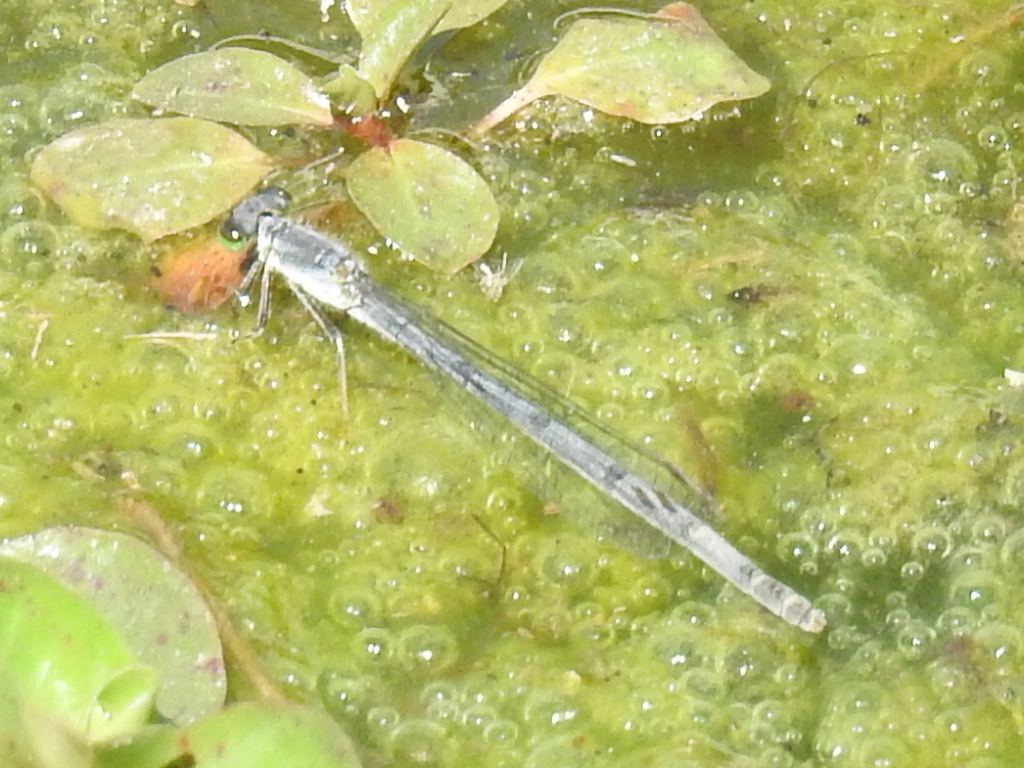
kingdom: Animalia
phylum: Arthropoda
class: Insecta
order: Odonata
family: Coenagrionidae
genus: Ischnura
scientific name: Ischnura posita
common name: Fragile forktail
